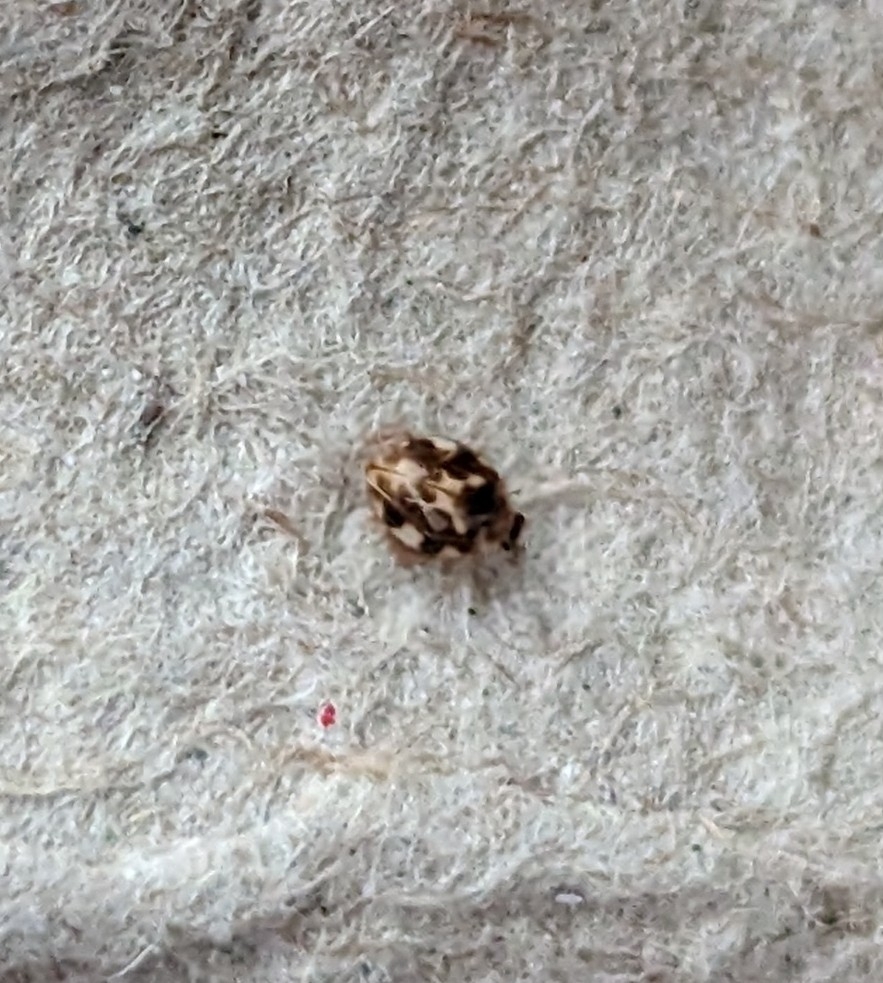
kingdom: Animalia
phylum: Arthropoda
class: Insecta
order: Coleoptera
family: Coccinellidae
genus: Psyllobora
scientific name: Psyllobora vigintimaculata
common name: Ladybird beetle
